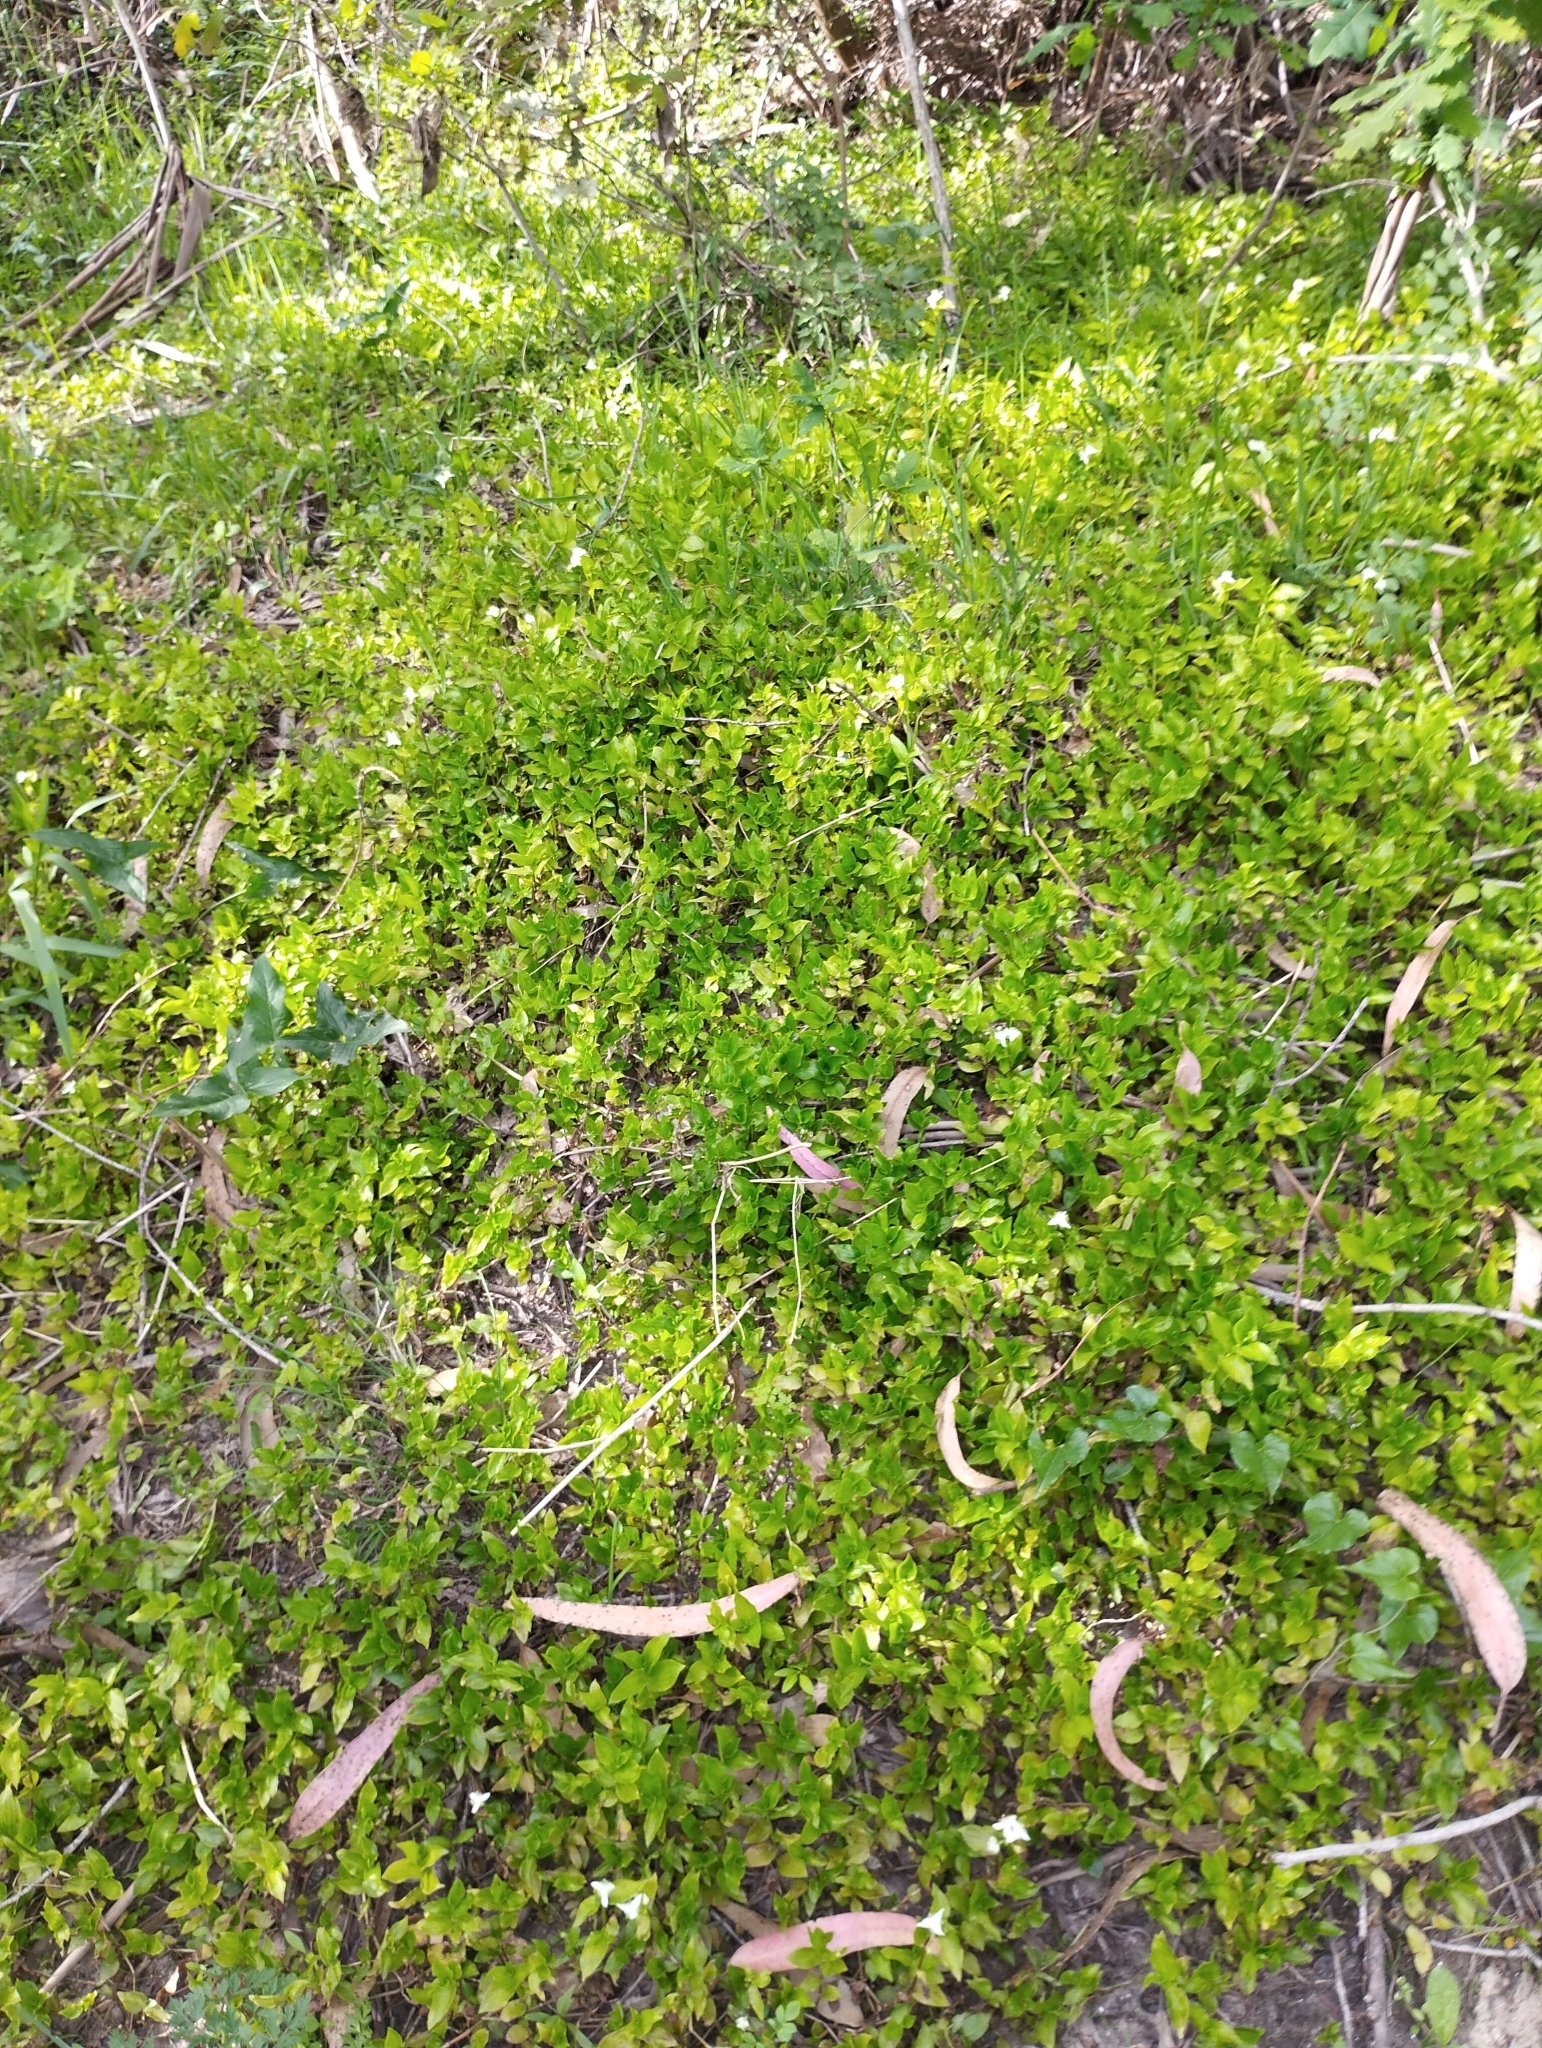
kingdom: Plantae
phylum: Tracheophyta
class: Liliopsida
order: Commelinales
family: Commelinaceae
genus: Tradescantia
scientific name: Tradescantia fluminensis
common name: Wandering-jew
